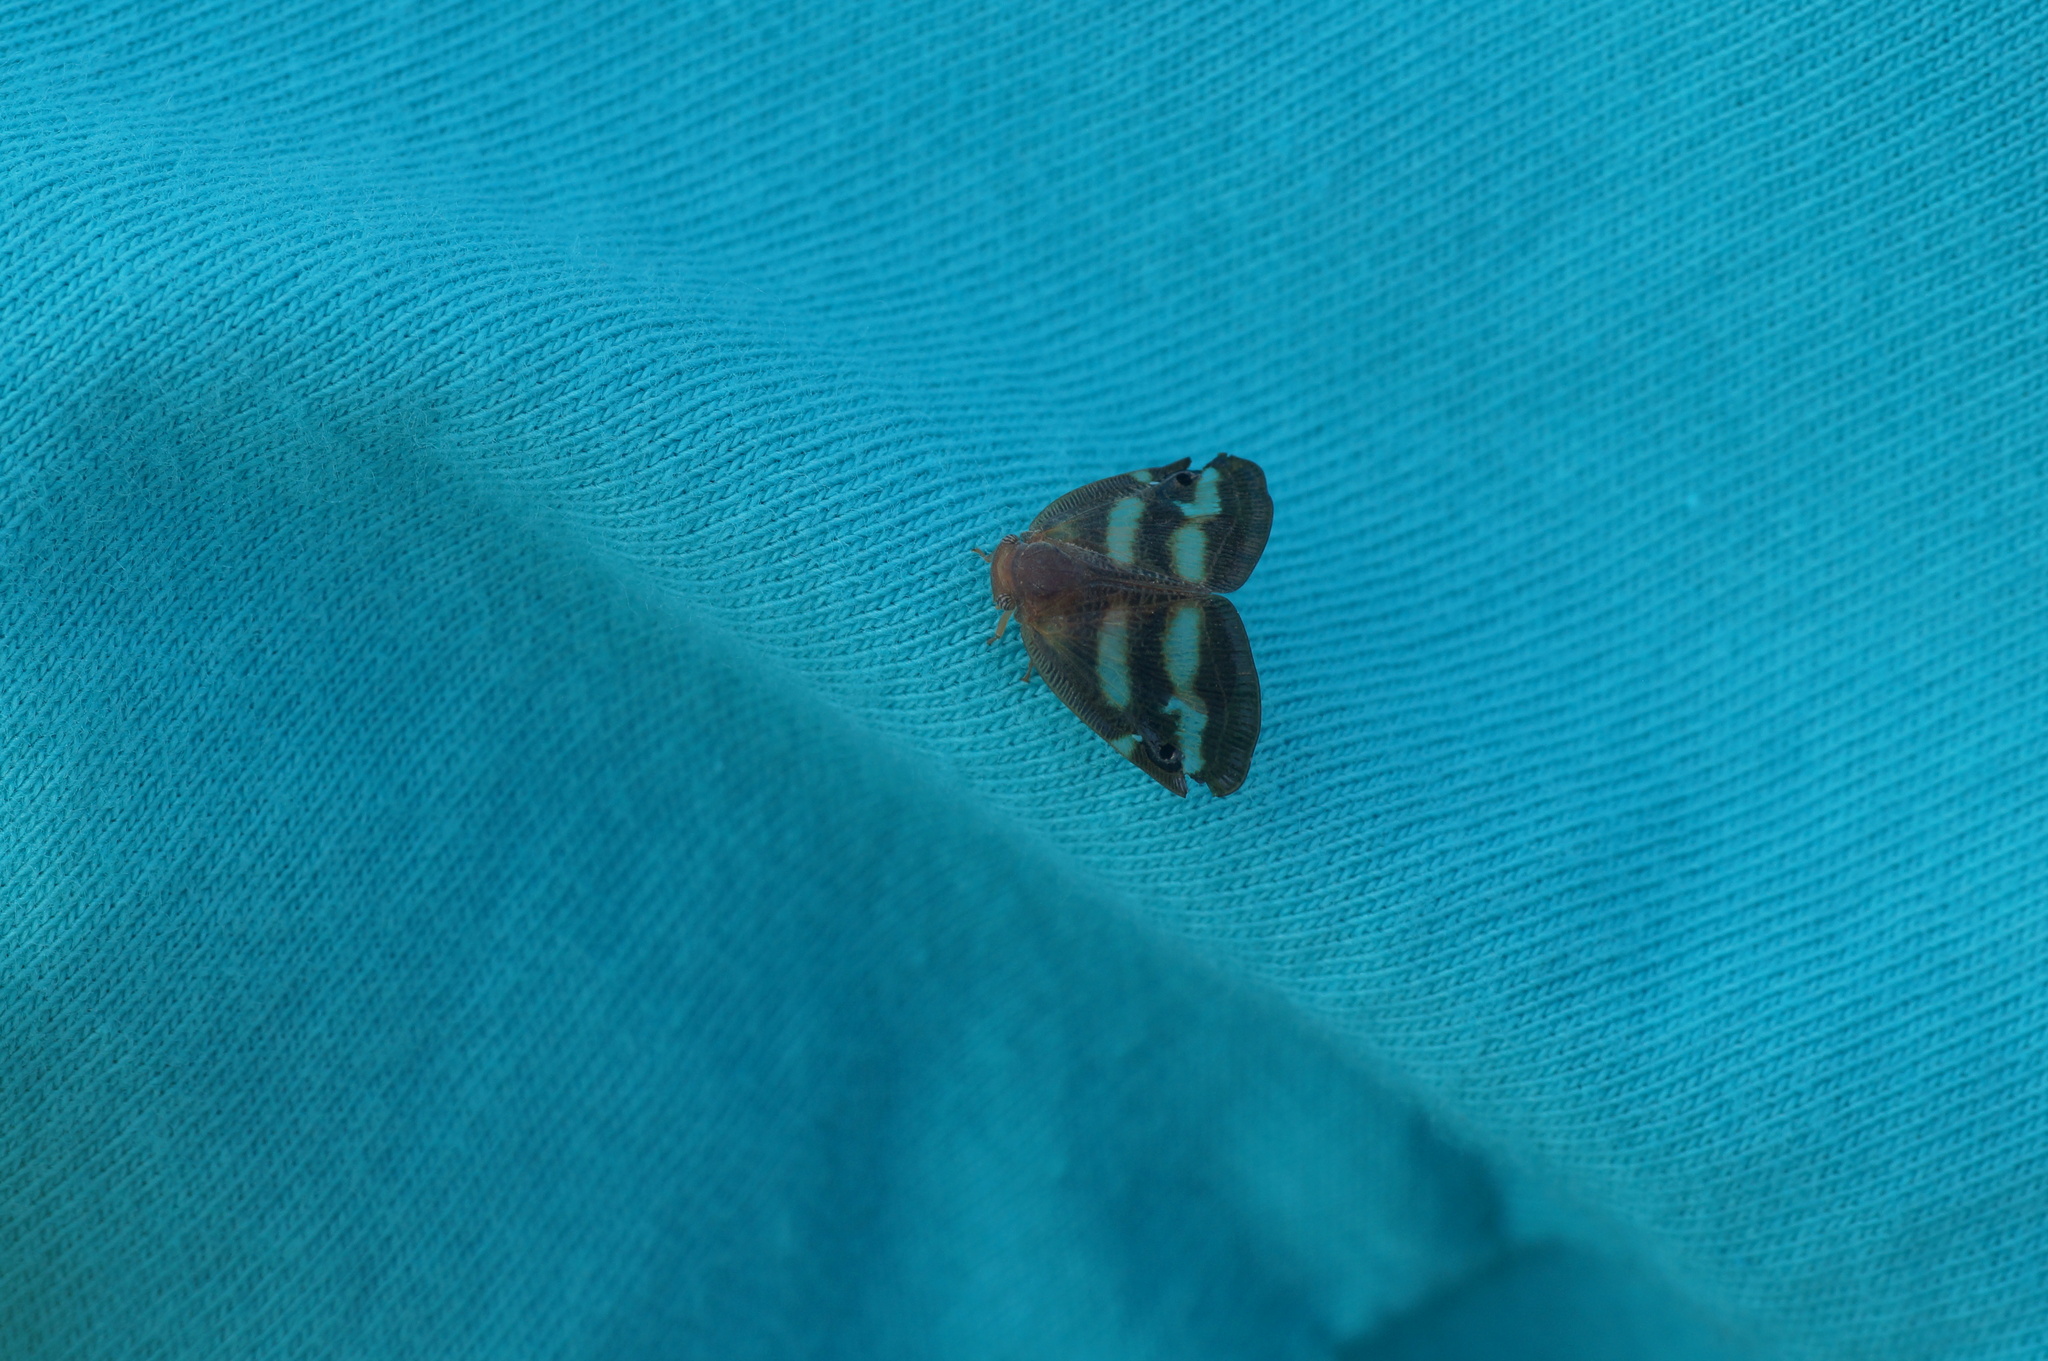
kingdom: Animalia
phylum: Arthropoda
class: Insecta
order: Hemiptera
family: Ricaniidae
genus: Orosanga
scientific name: Orosanga japonica
